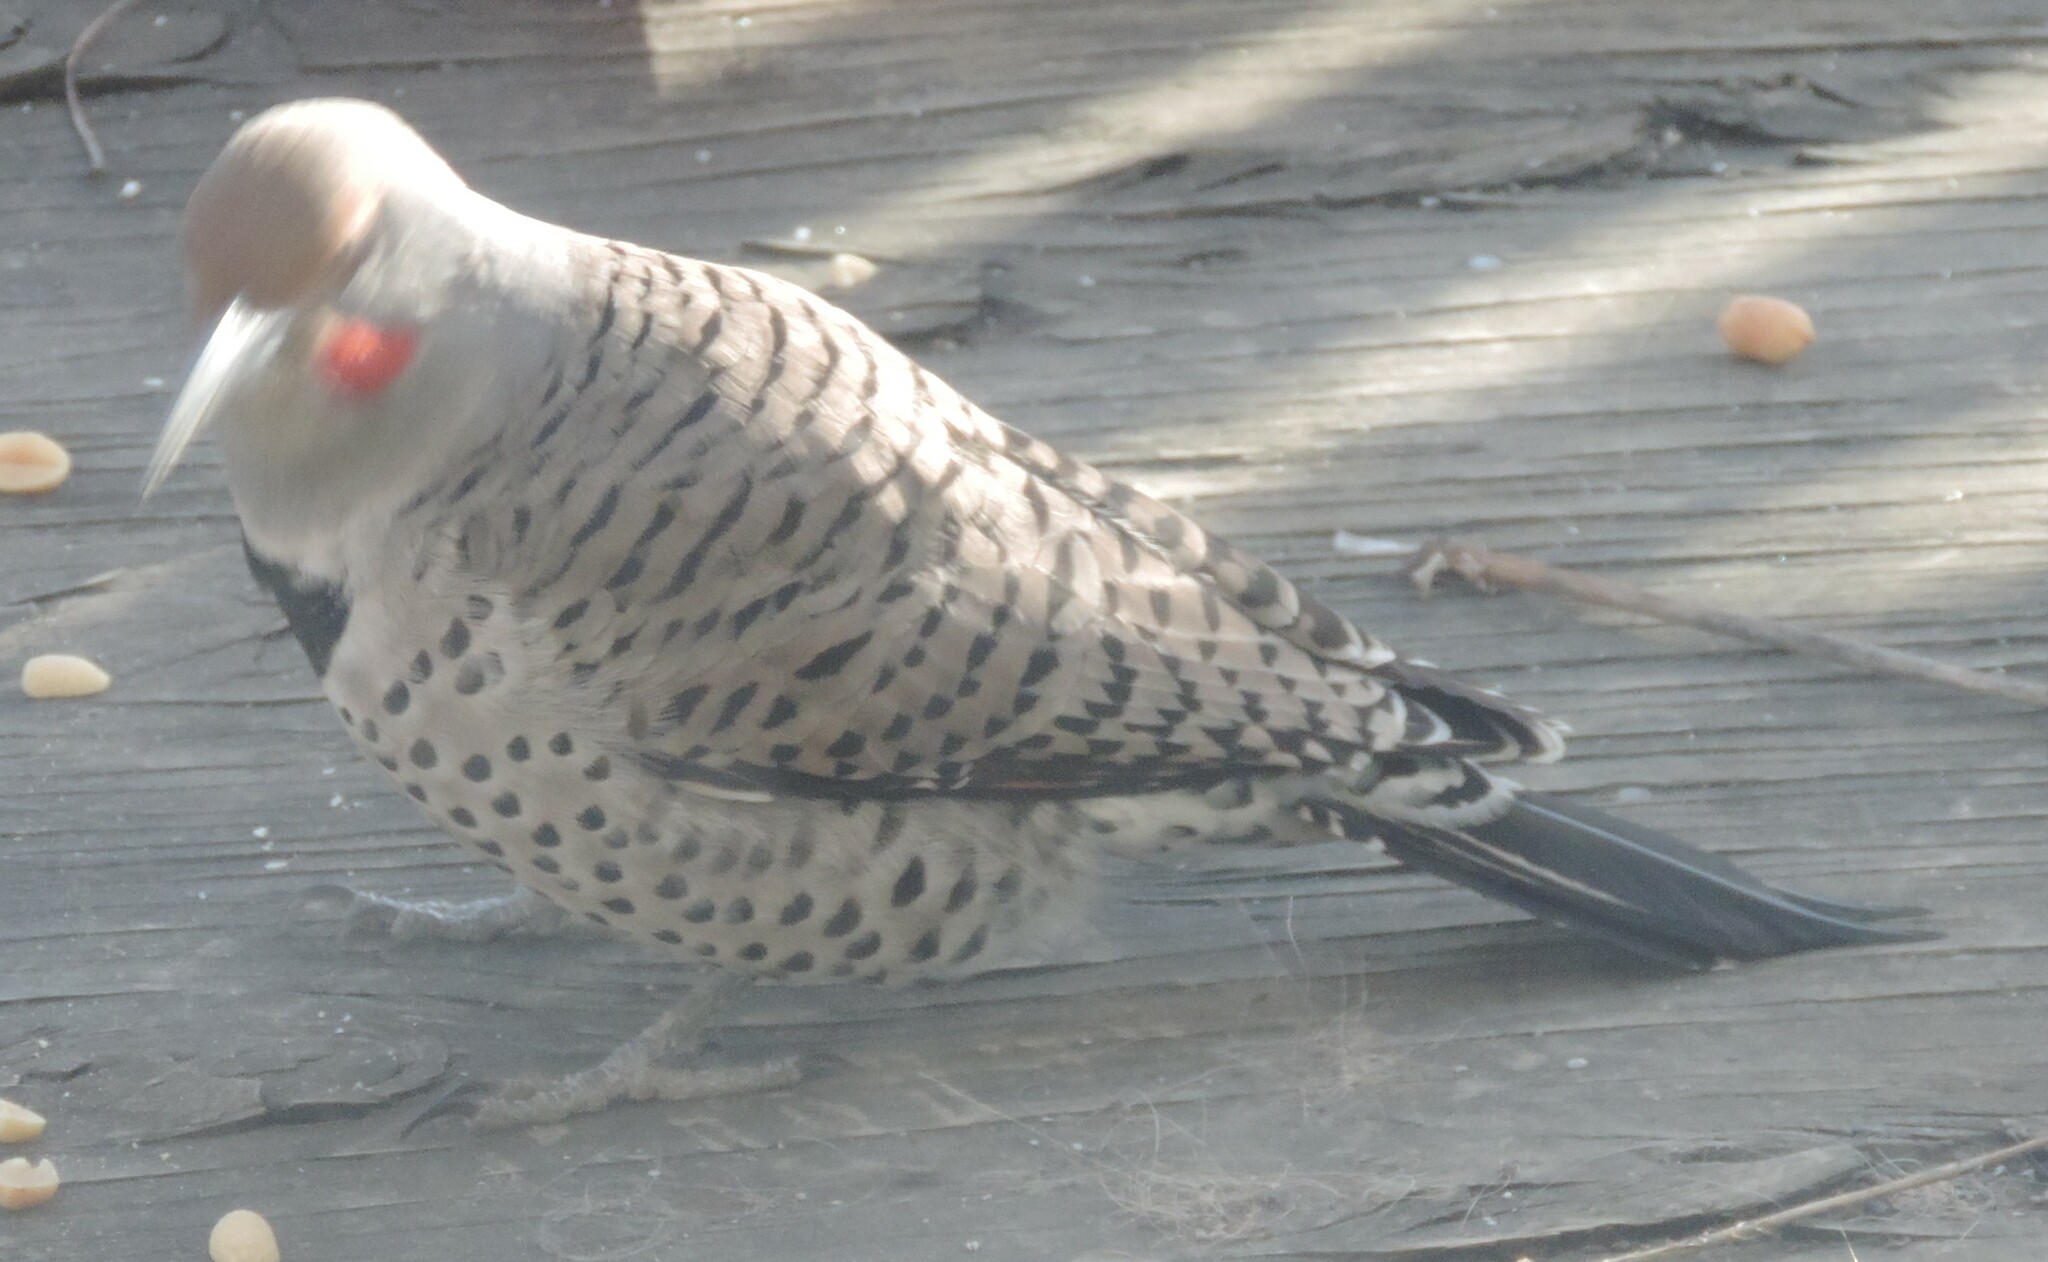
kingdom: Animalia
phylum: Chordata
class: Aves
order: Piciformes
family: Picidae
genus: Colaptes
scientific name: Colaptes
